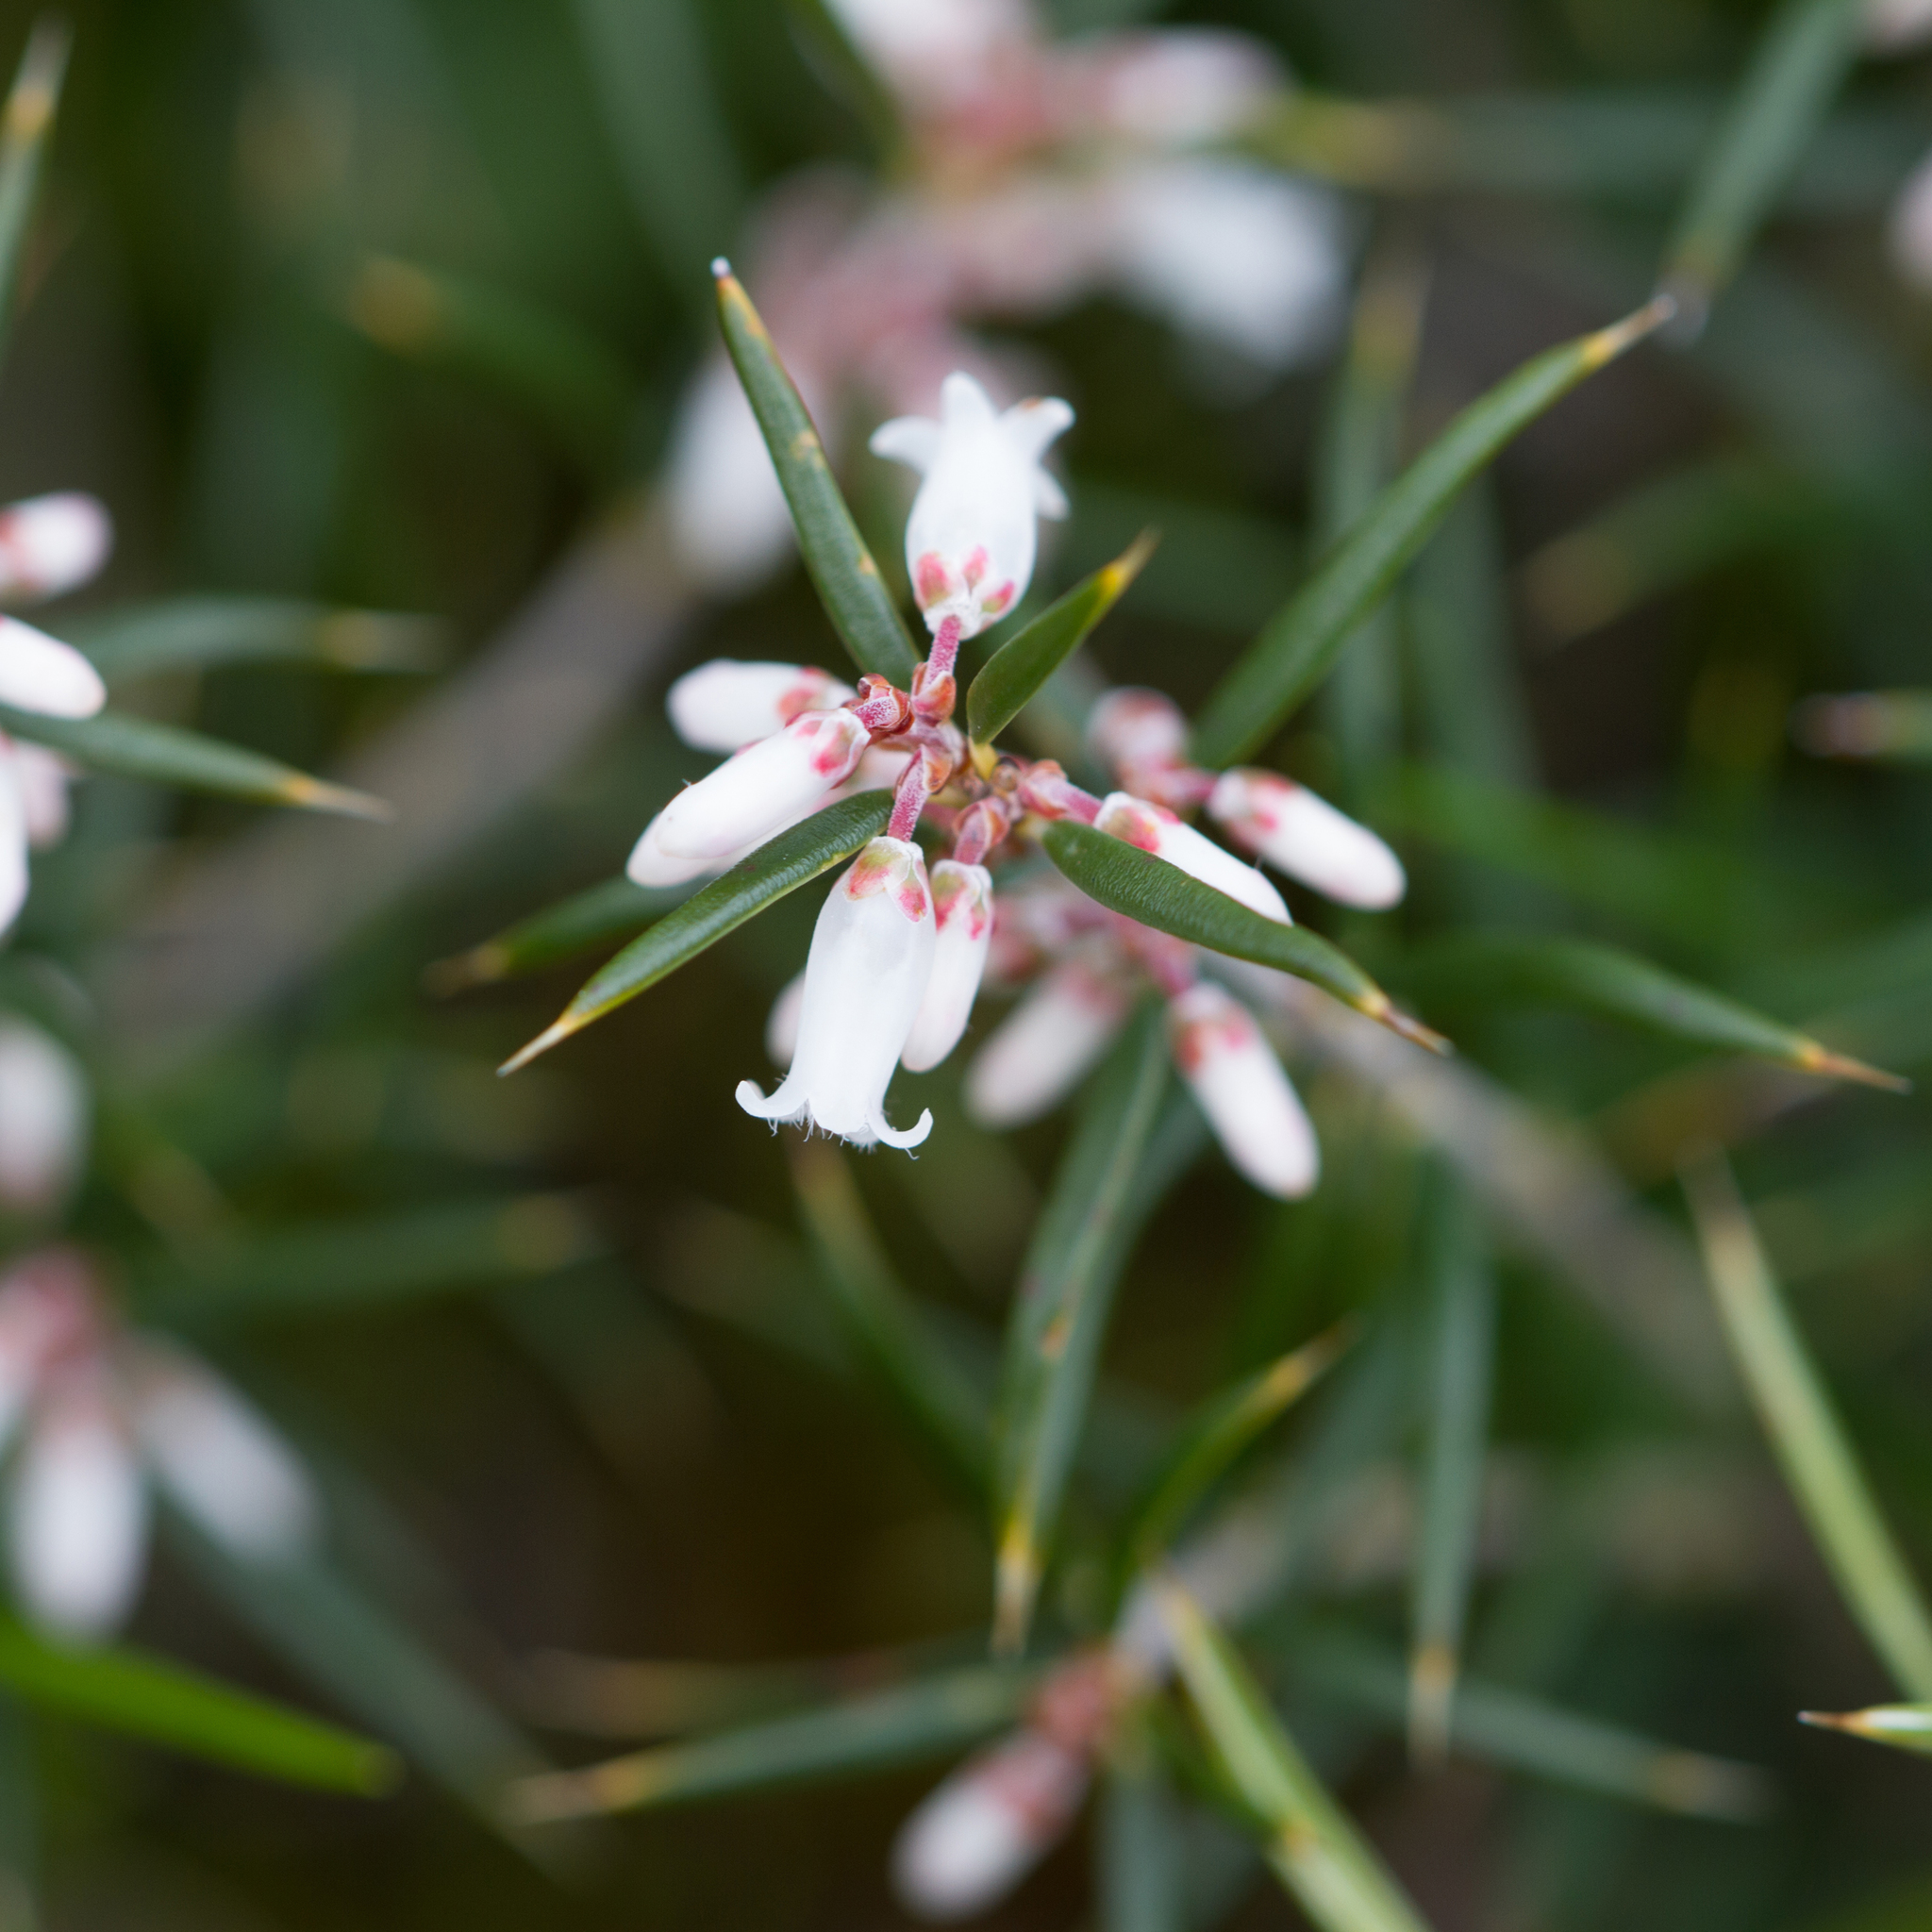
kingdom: Plantae
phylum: Tracheophyta
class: Magnoliopsida
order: Ericales
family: Ericaceae
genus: Lissanthe
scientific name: Lissanthe strigosa
